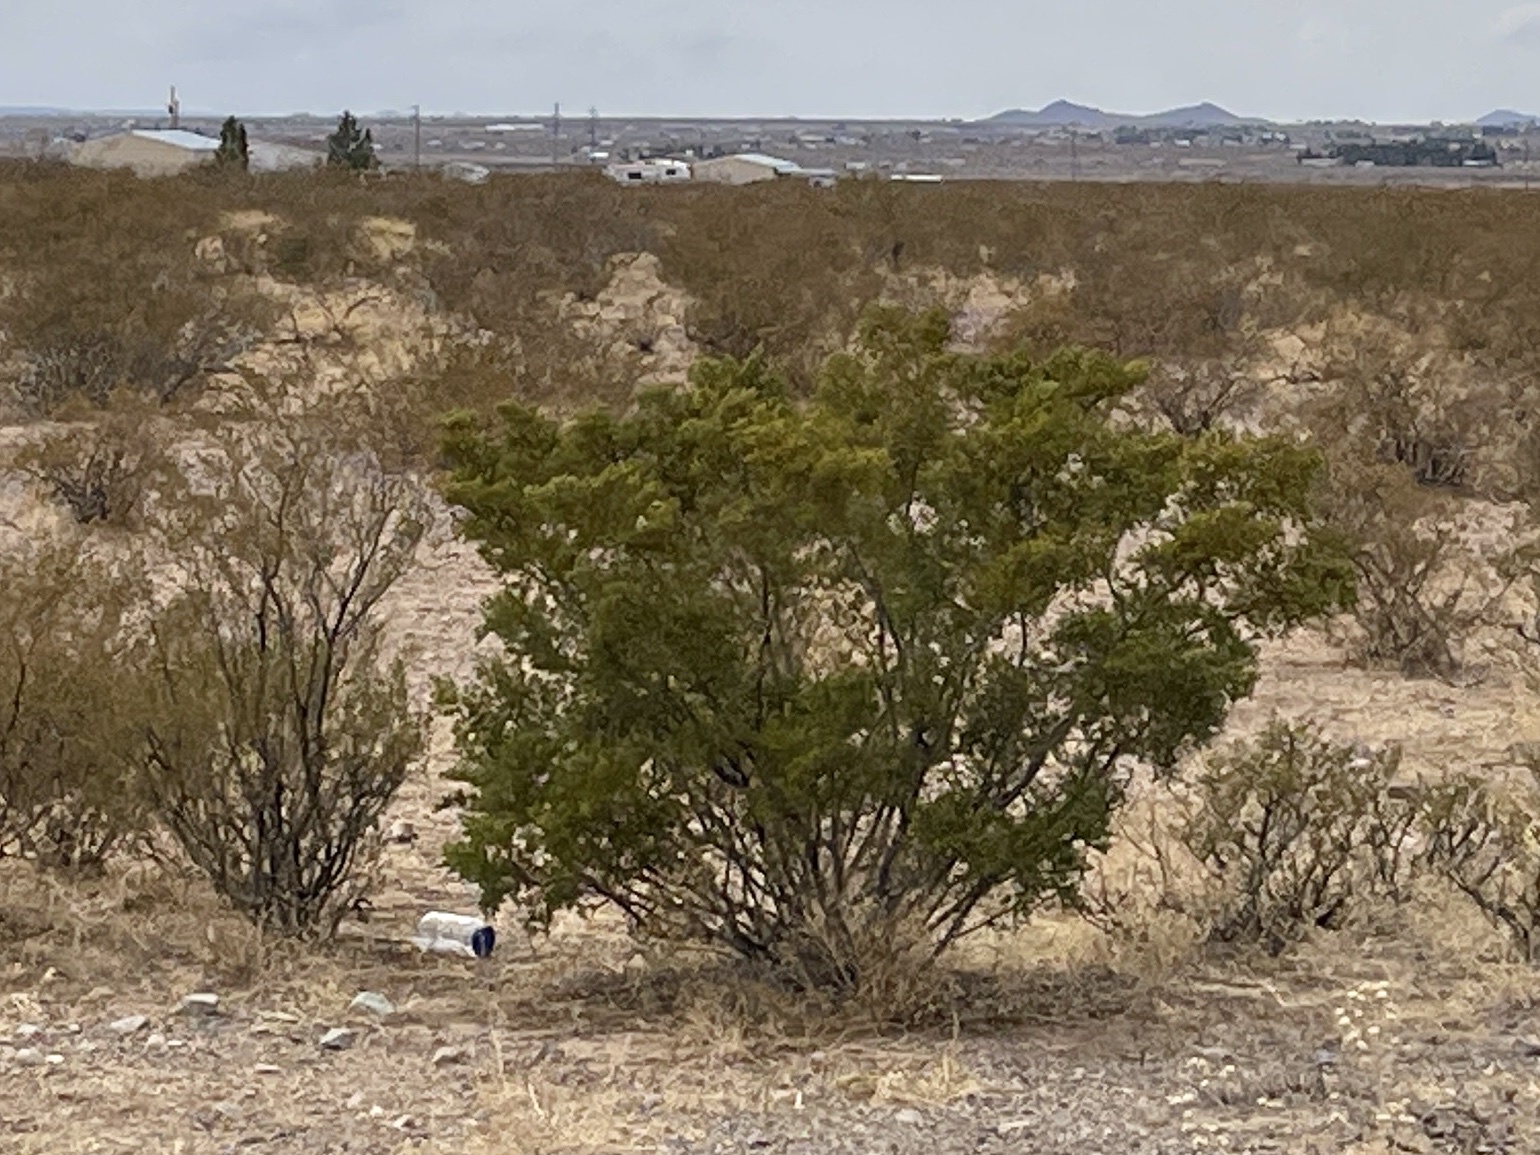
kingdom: Plantae
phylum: Tracheophyta
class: Magnoliopsida
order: Zygophyllales
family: Zygophyllaceae
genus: Larrea
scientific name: Larrea tridentata
